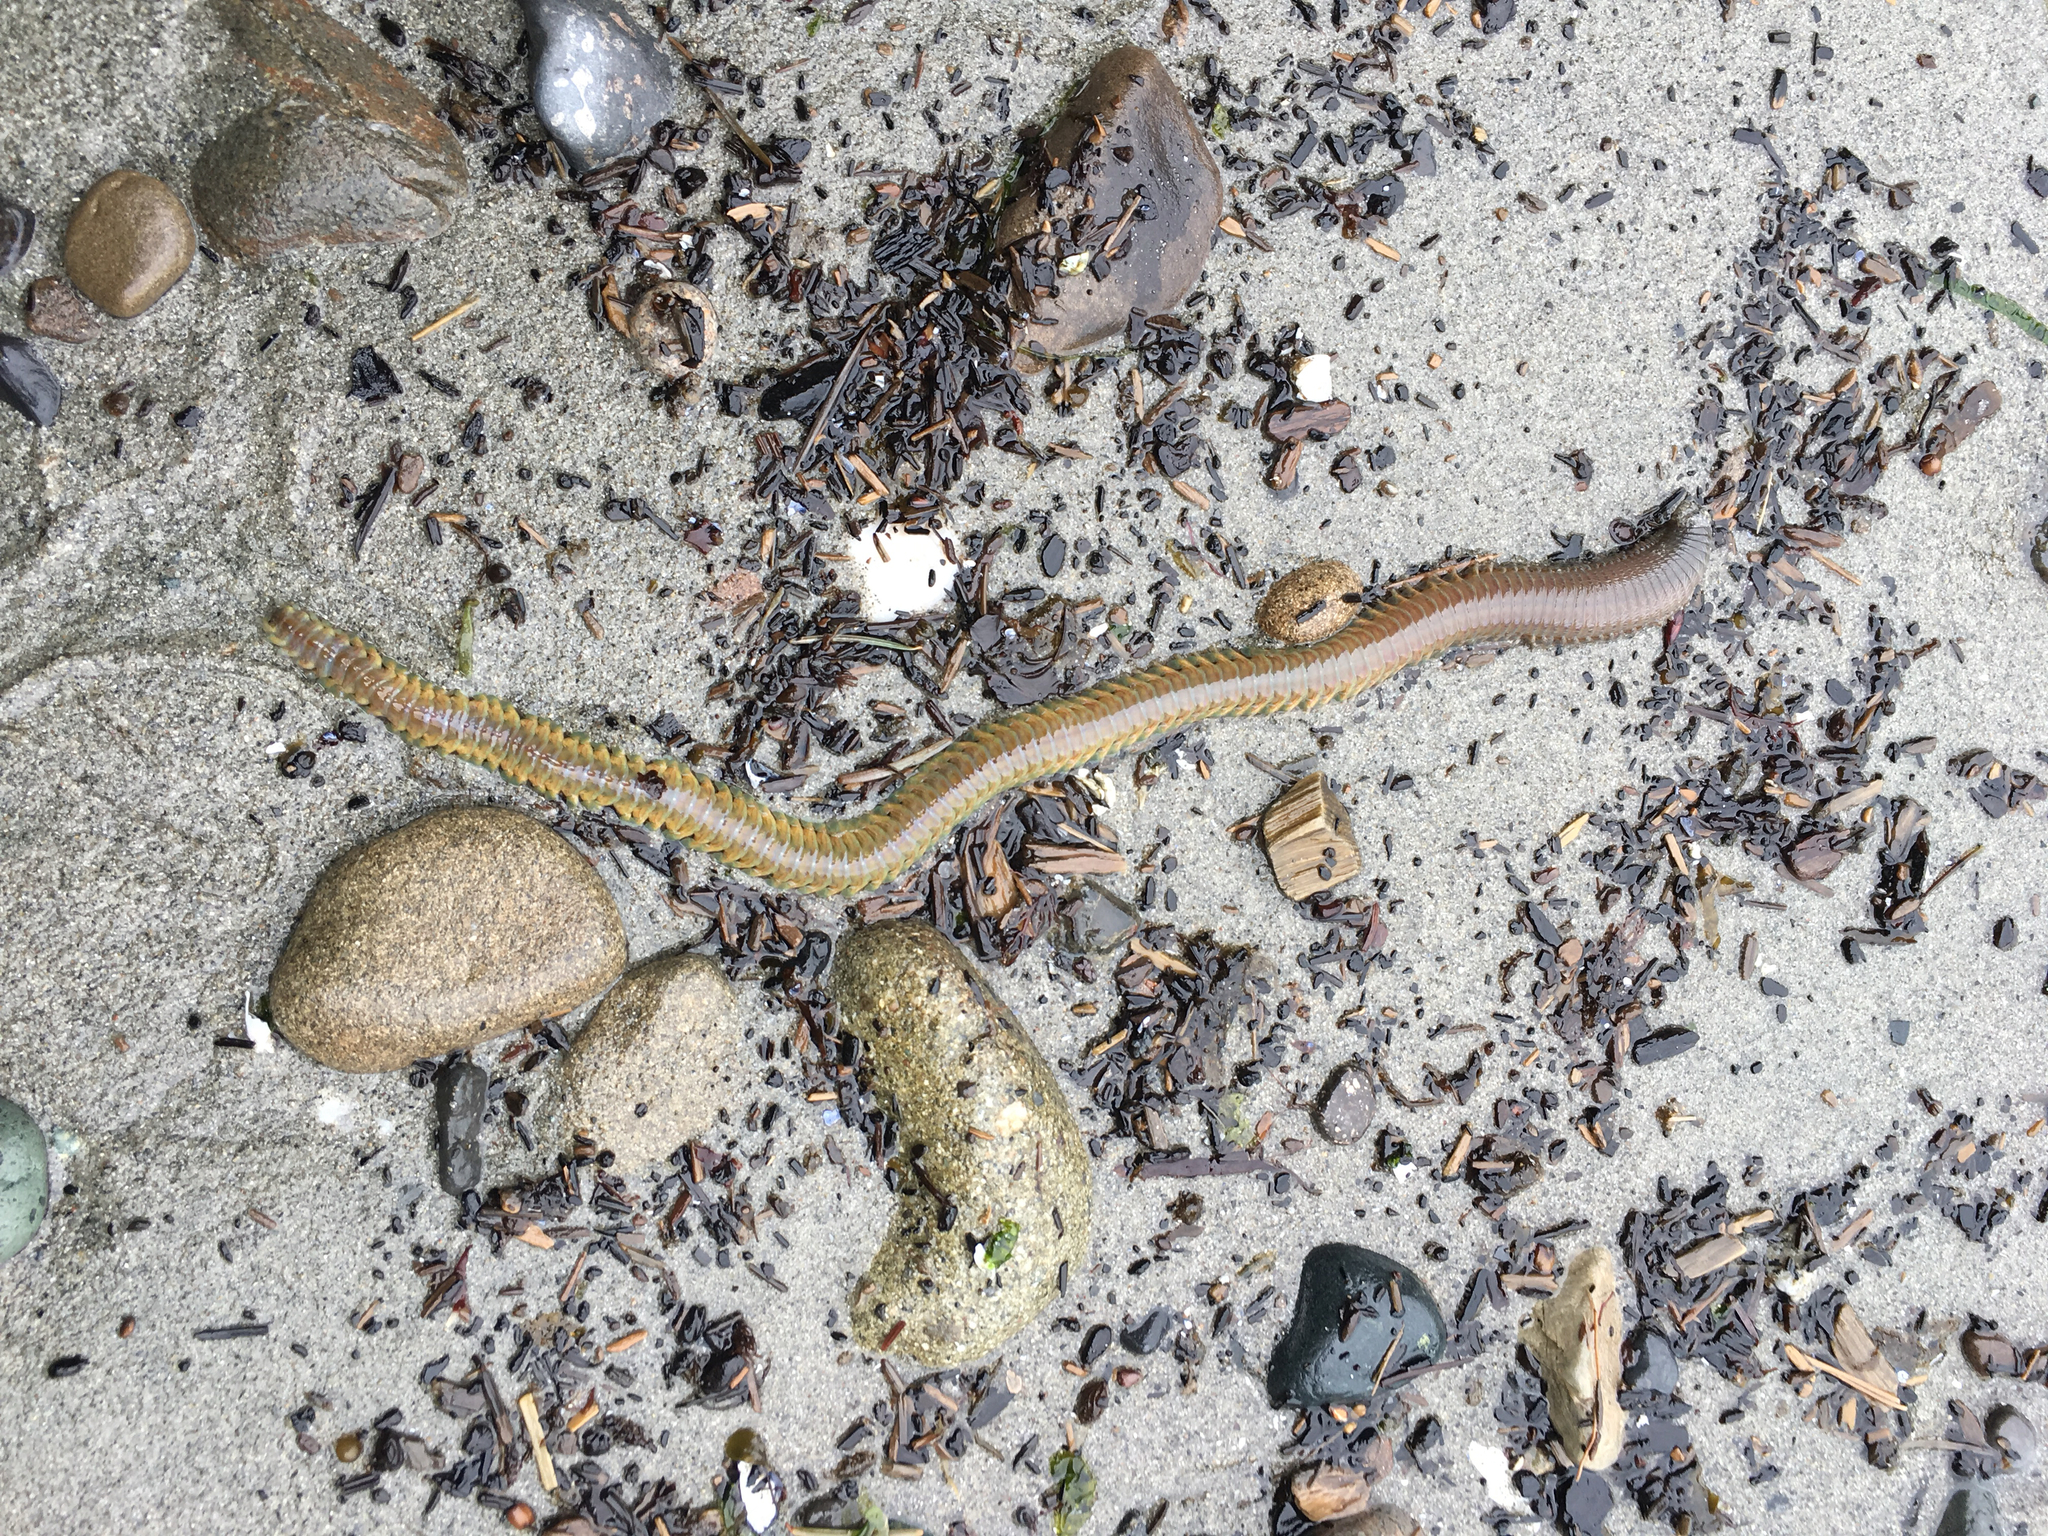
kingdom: Animalia
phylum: Annelida
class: Polychaeta
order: Phyllodocida
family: Nereididae
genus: Alitta
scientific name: Alitta williami
